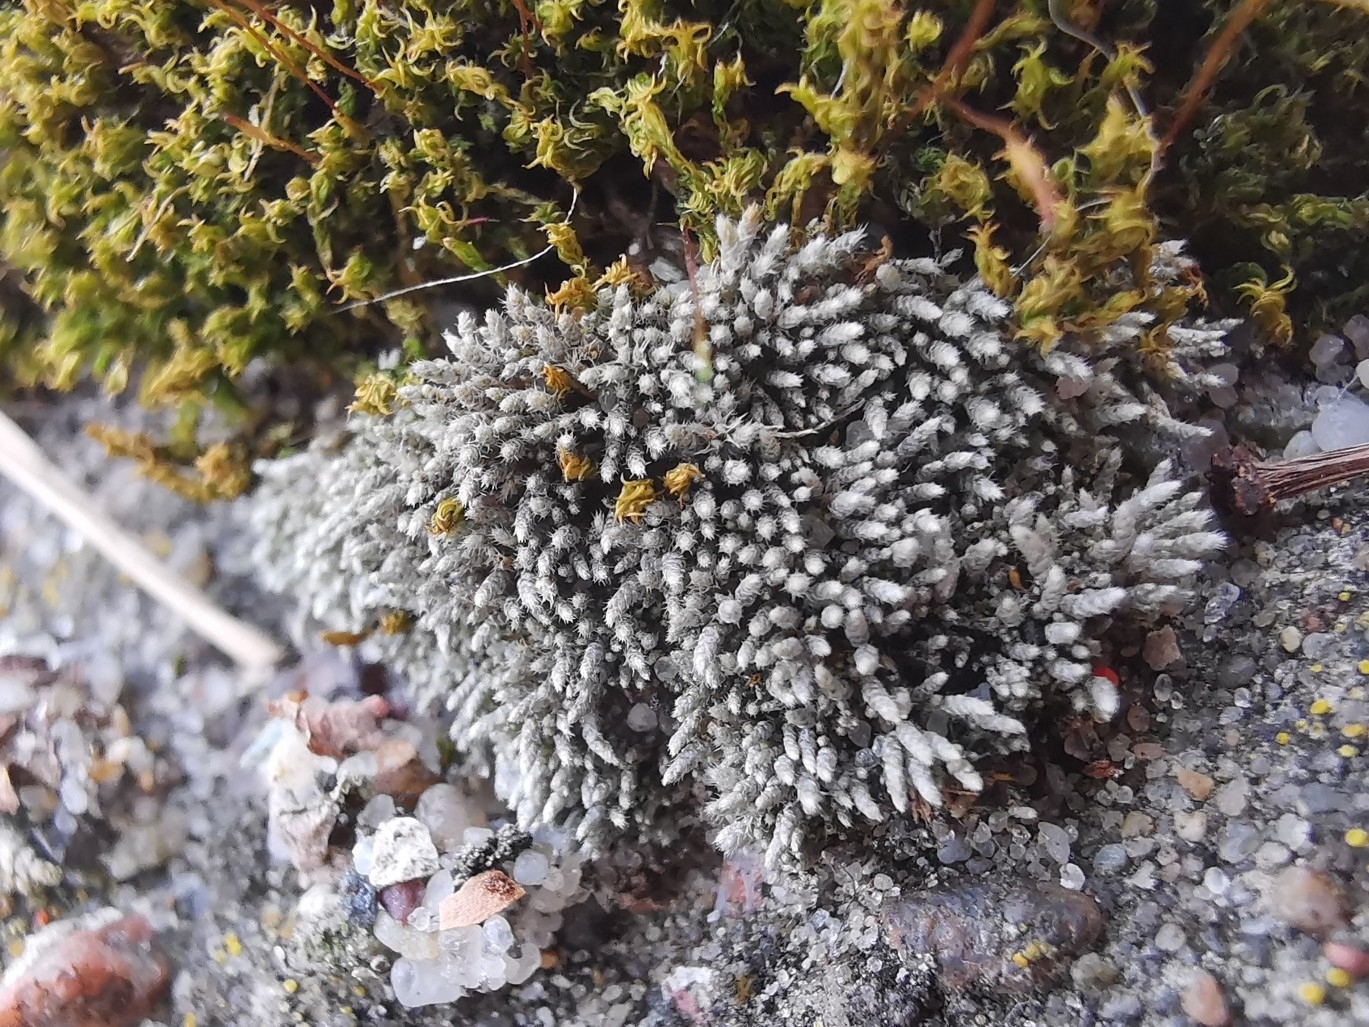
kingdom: Plantae
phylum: Bryophyta
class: Bryopsida
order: Bryales
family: Bryaceae
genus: Bryum
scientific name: Bryum argenteum
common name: Silver-moss
